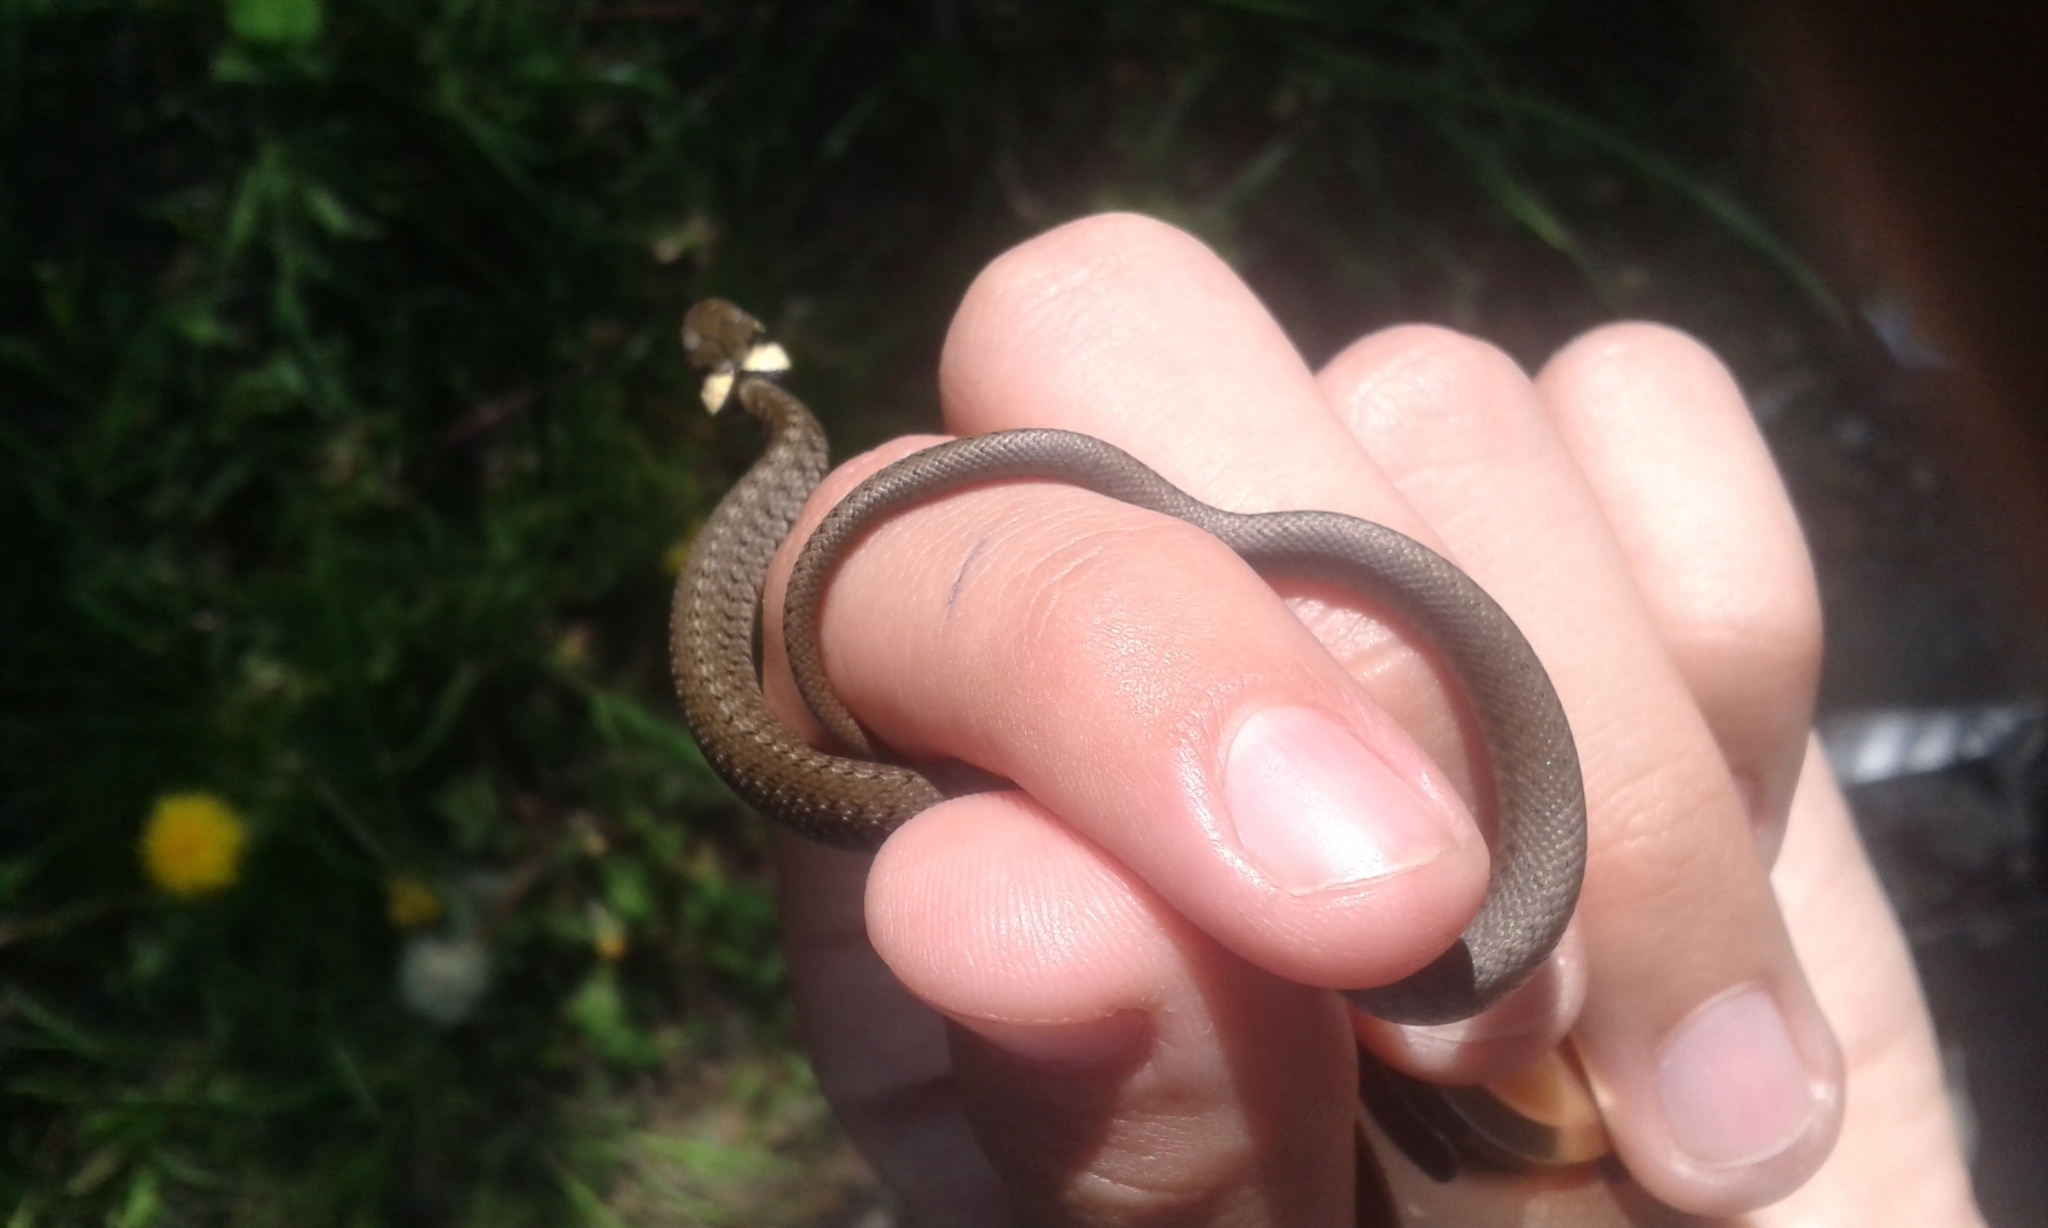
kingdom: Animalia
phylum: Chordata
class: Squamata
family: Colubridae
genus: Natrix
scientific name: Natrix natrix
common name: Grass snake
